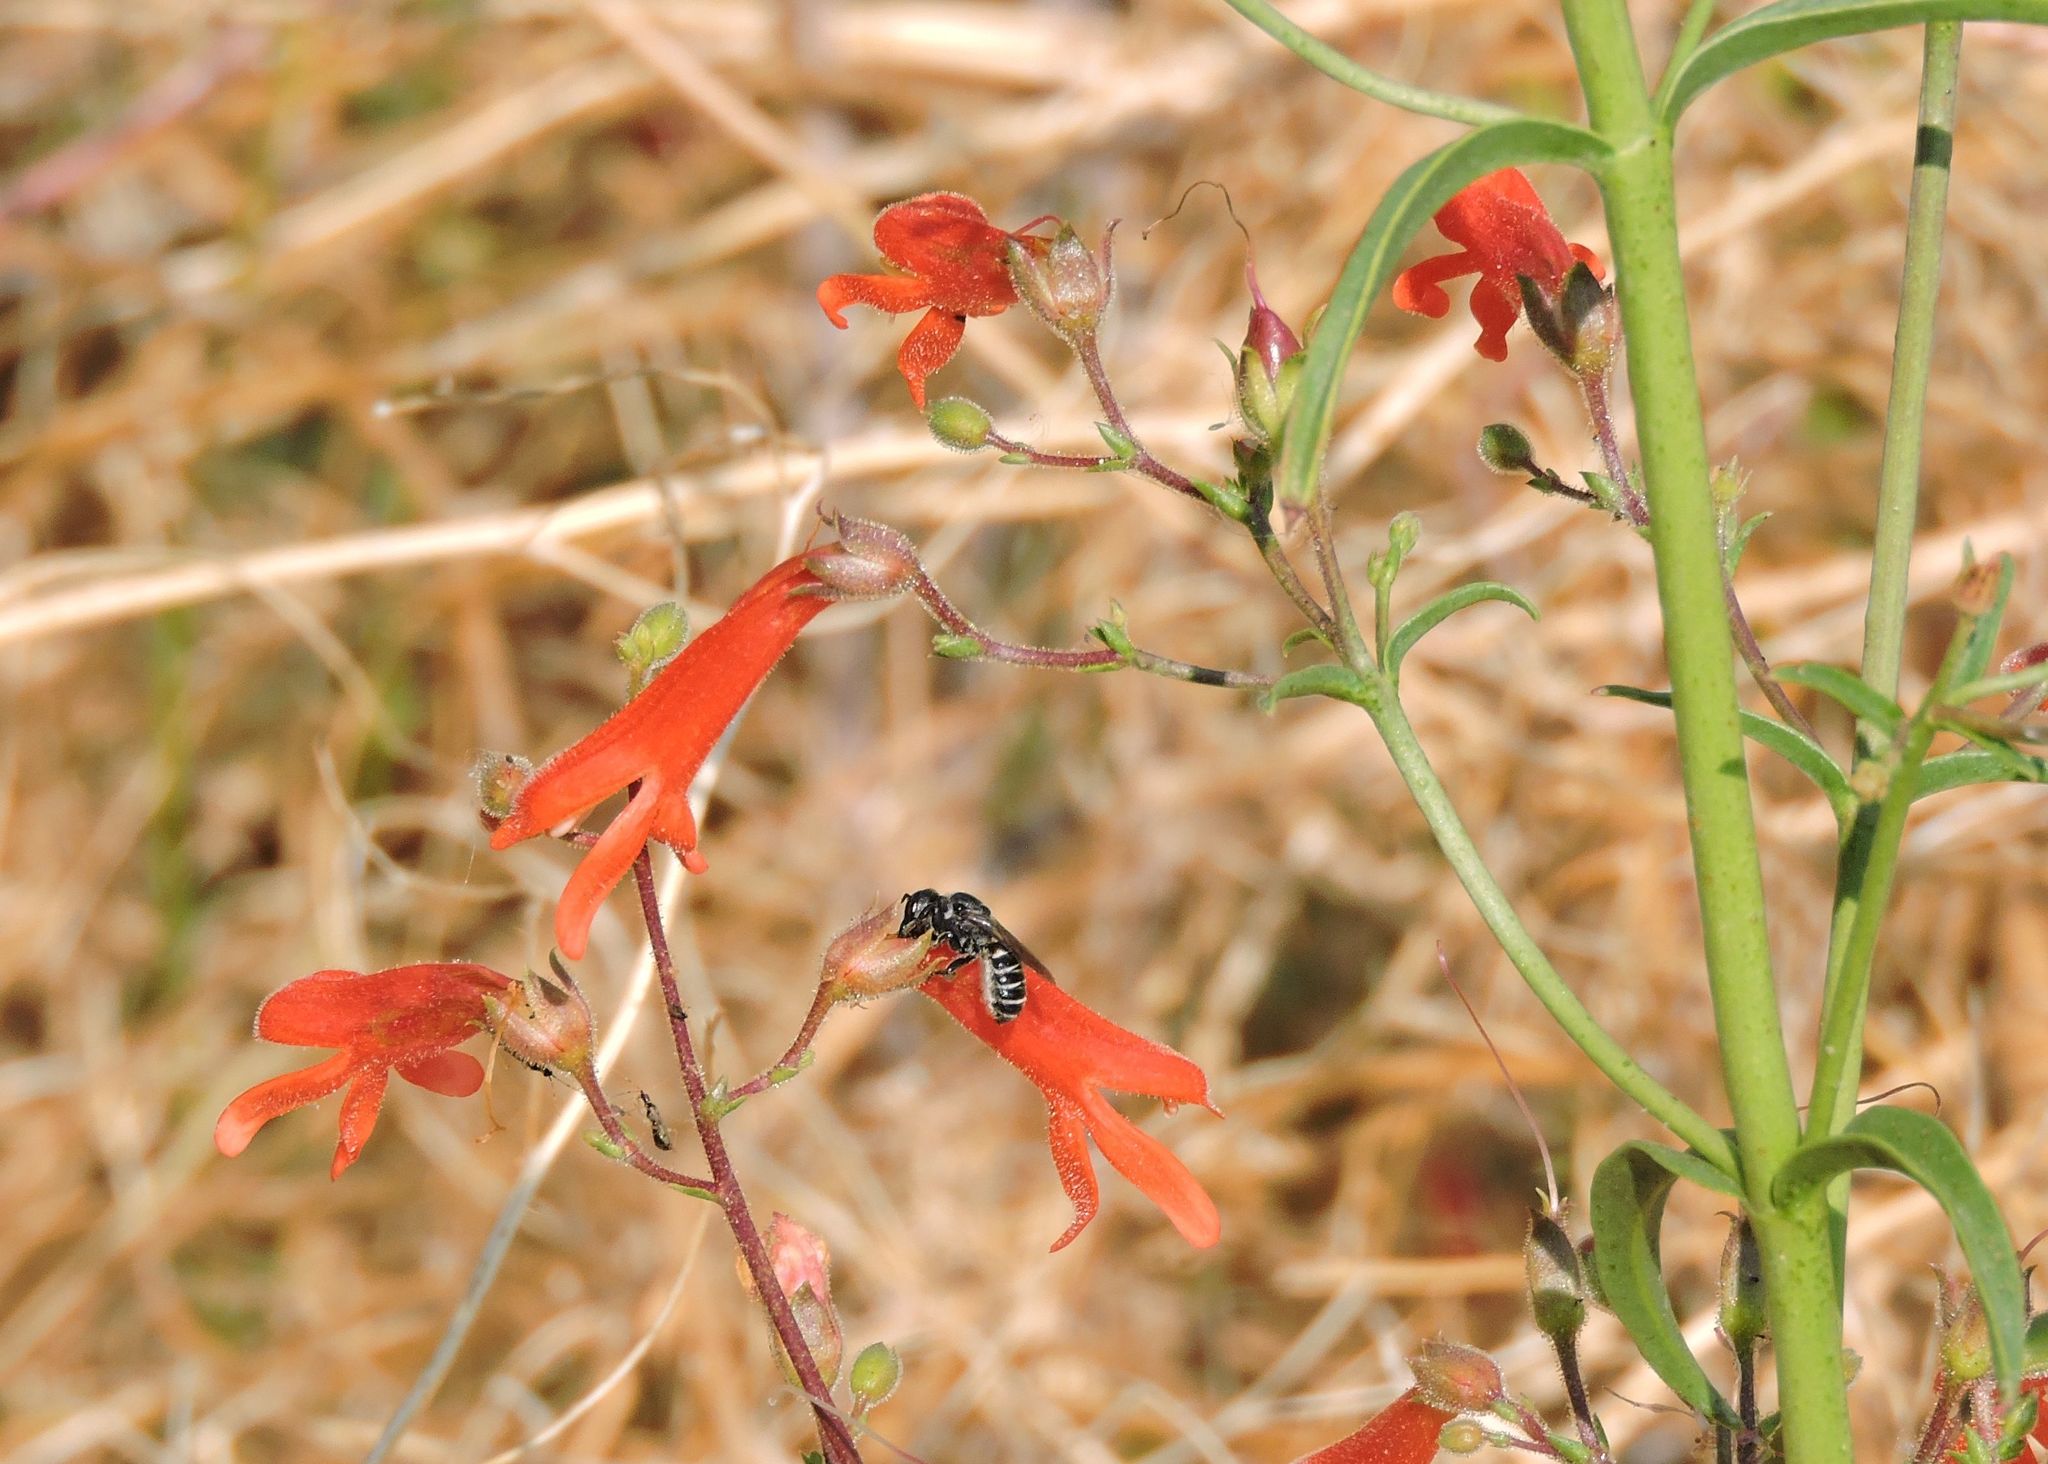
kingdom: Plantae
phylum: Tracheophyta
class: Magnoliopsida
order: Lamiales
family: Plantaginaceae
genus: Penstemon
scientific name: Penstemon rostriflorus
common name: Bridges's penstemon
